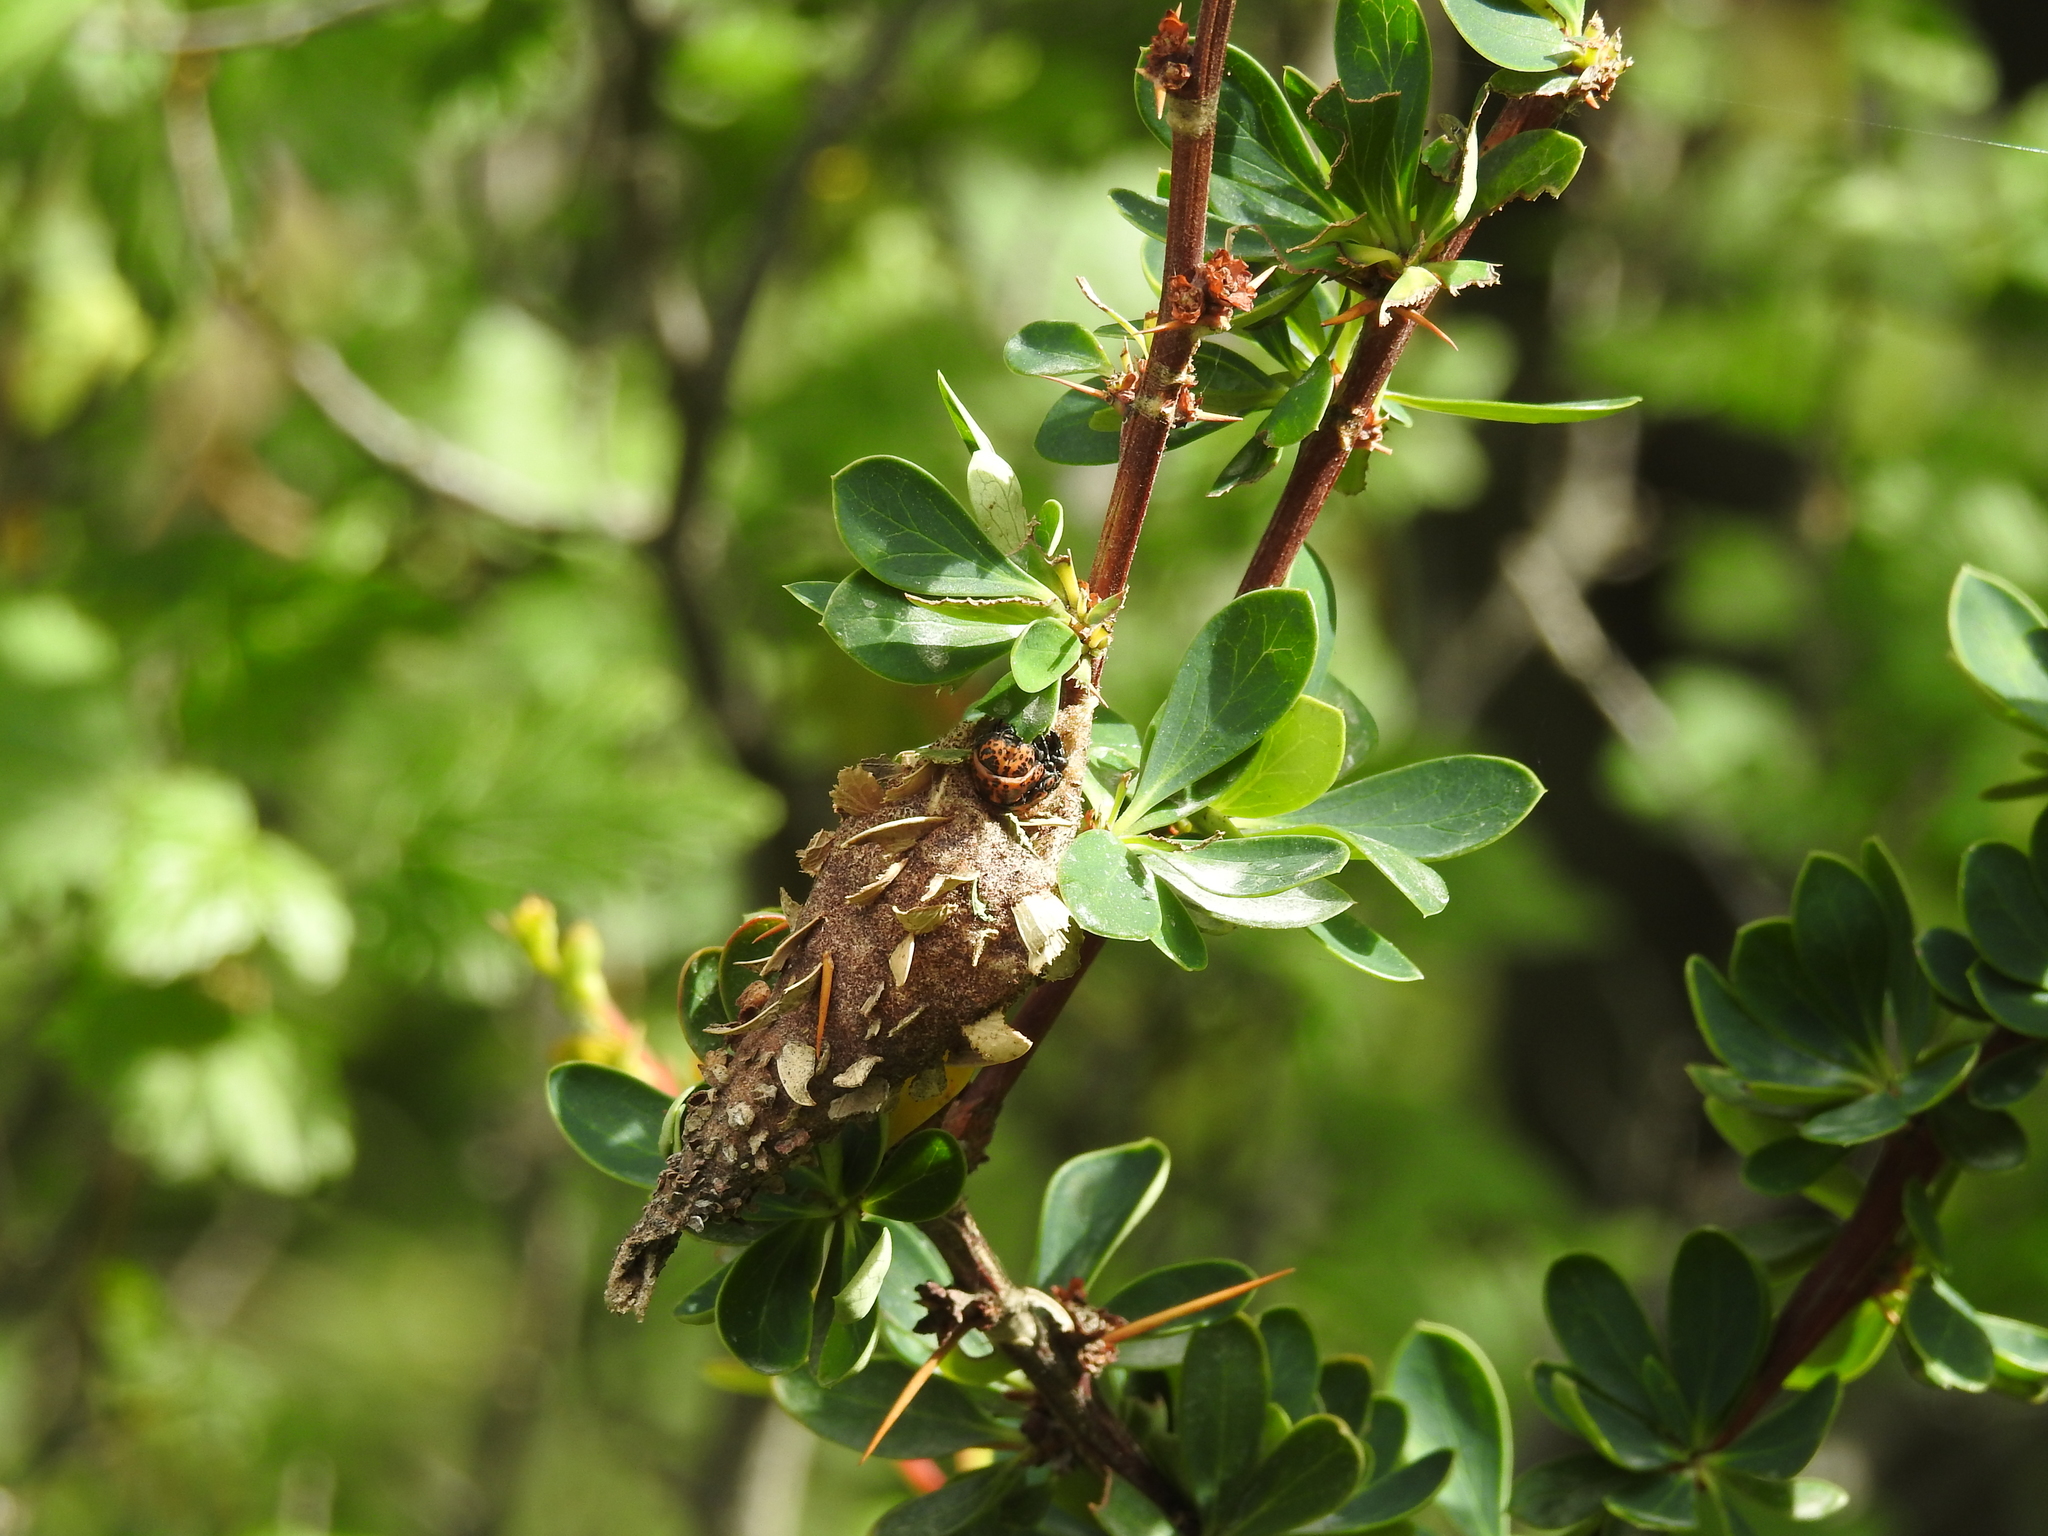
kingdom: Animalia
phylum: Arthropoda
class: Insecta
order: Lepidoptera
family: Psychidae
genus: Thanatopsyche
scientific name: Thanatopsyche chilensis
